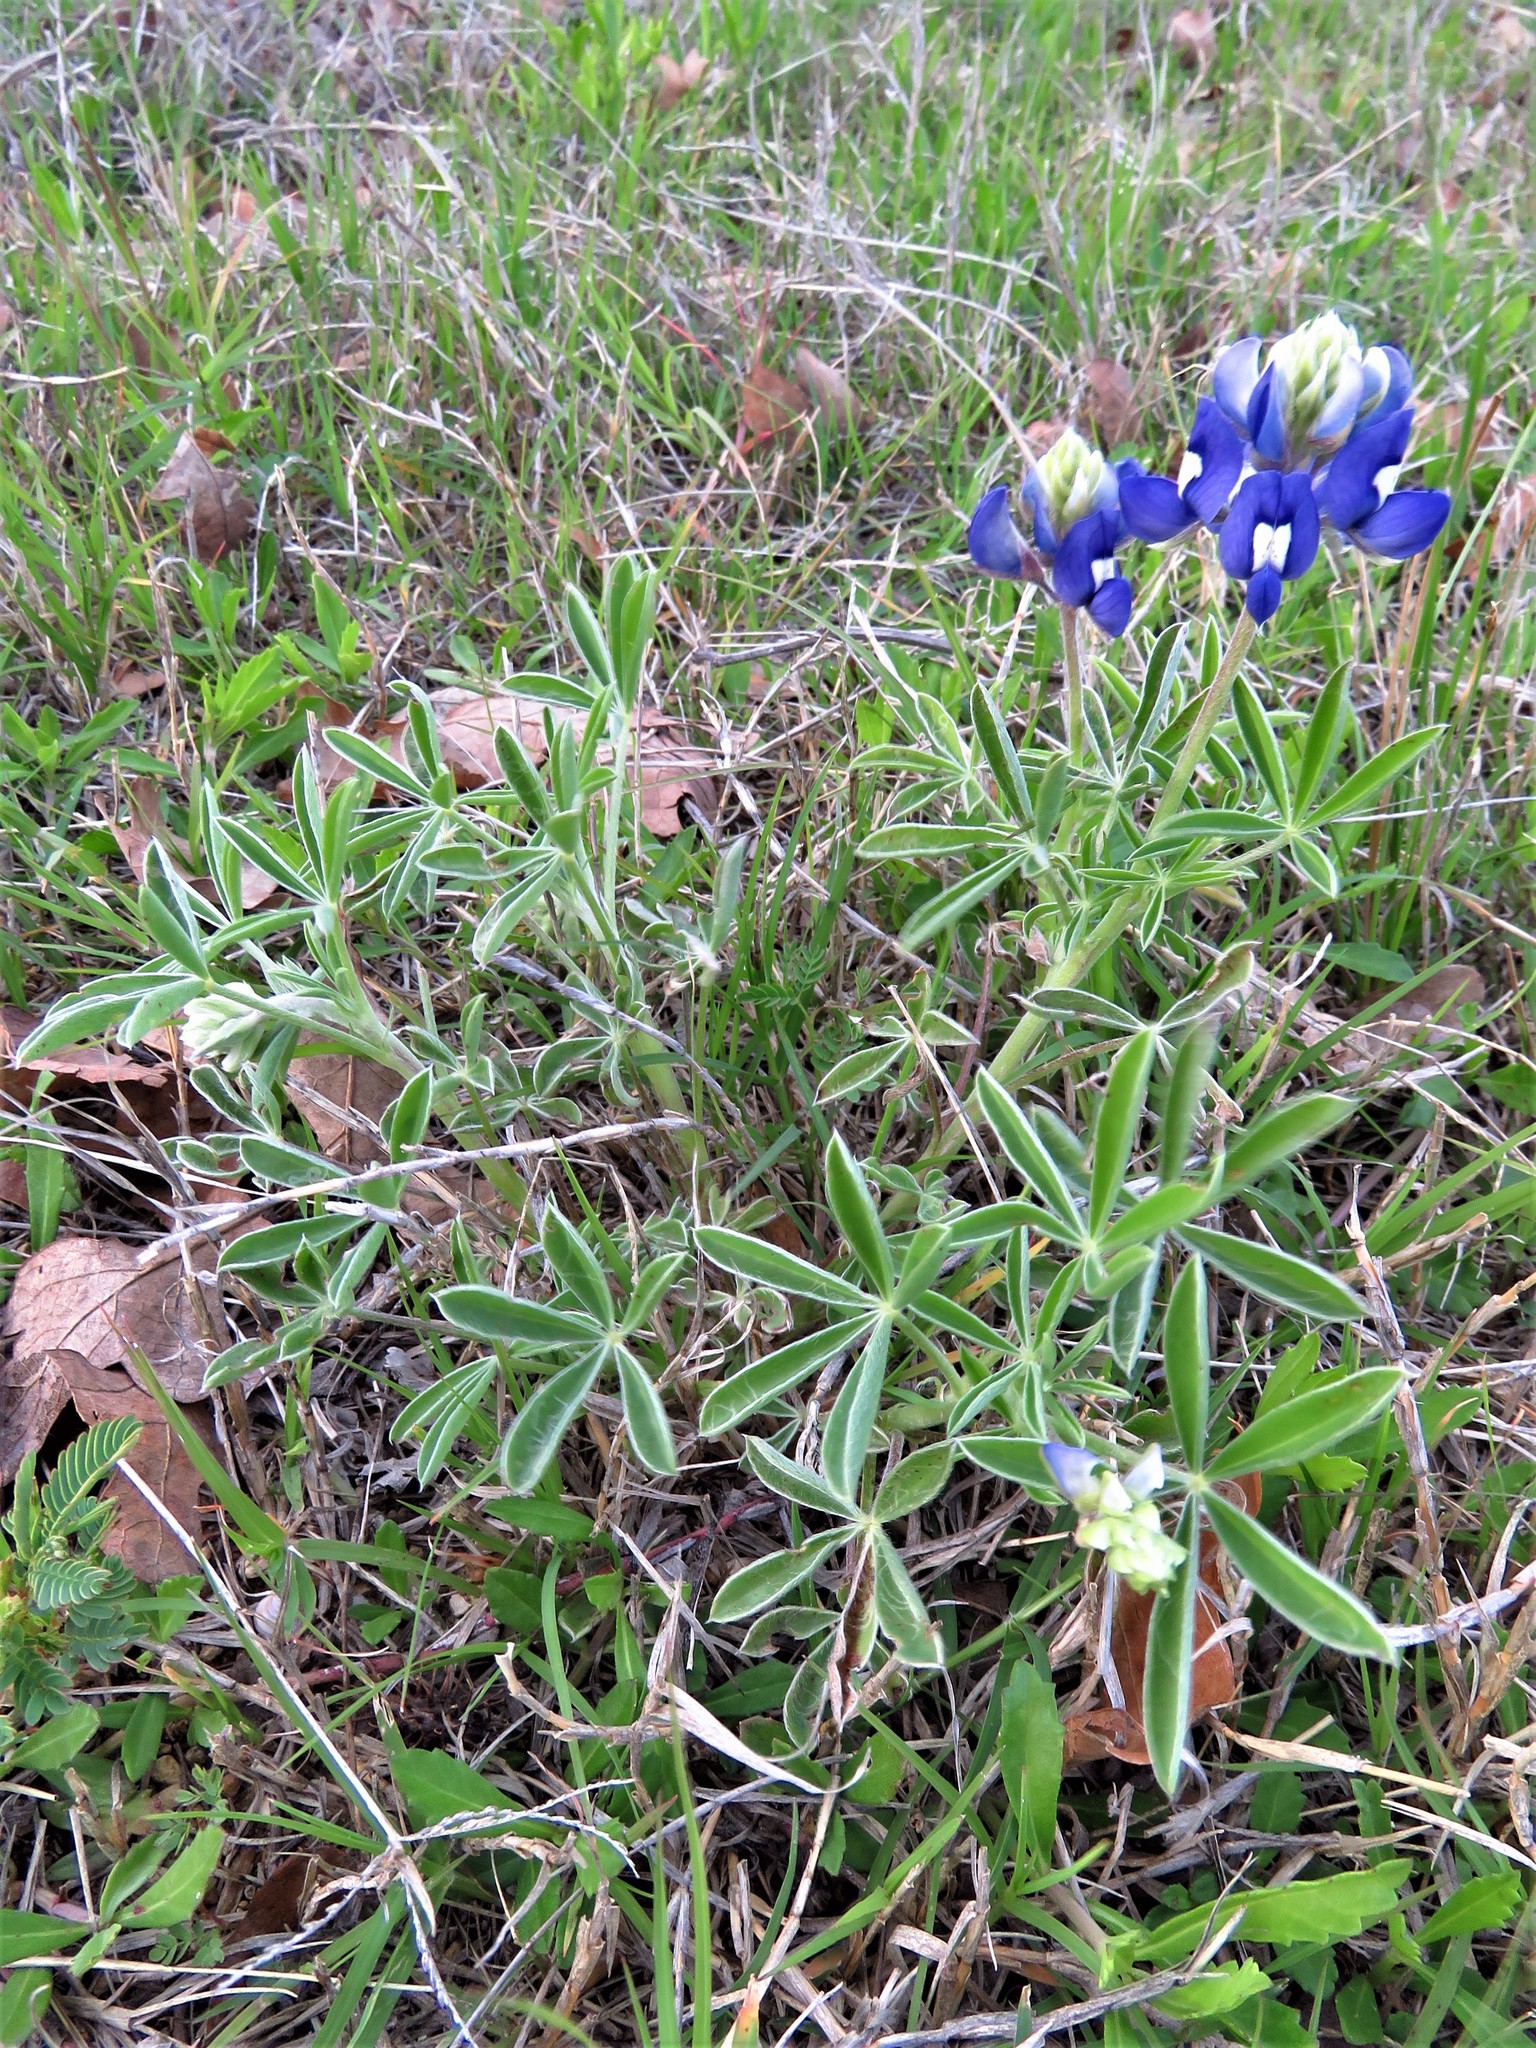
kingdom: Plantae
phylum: Tracheophyta
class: Magnoliopsida
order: Fabales
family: Fabaceae
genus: Lupinus
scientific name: Lupinus texensis
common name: Texas bluebonnet
